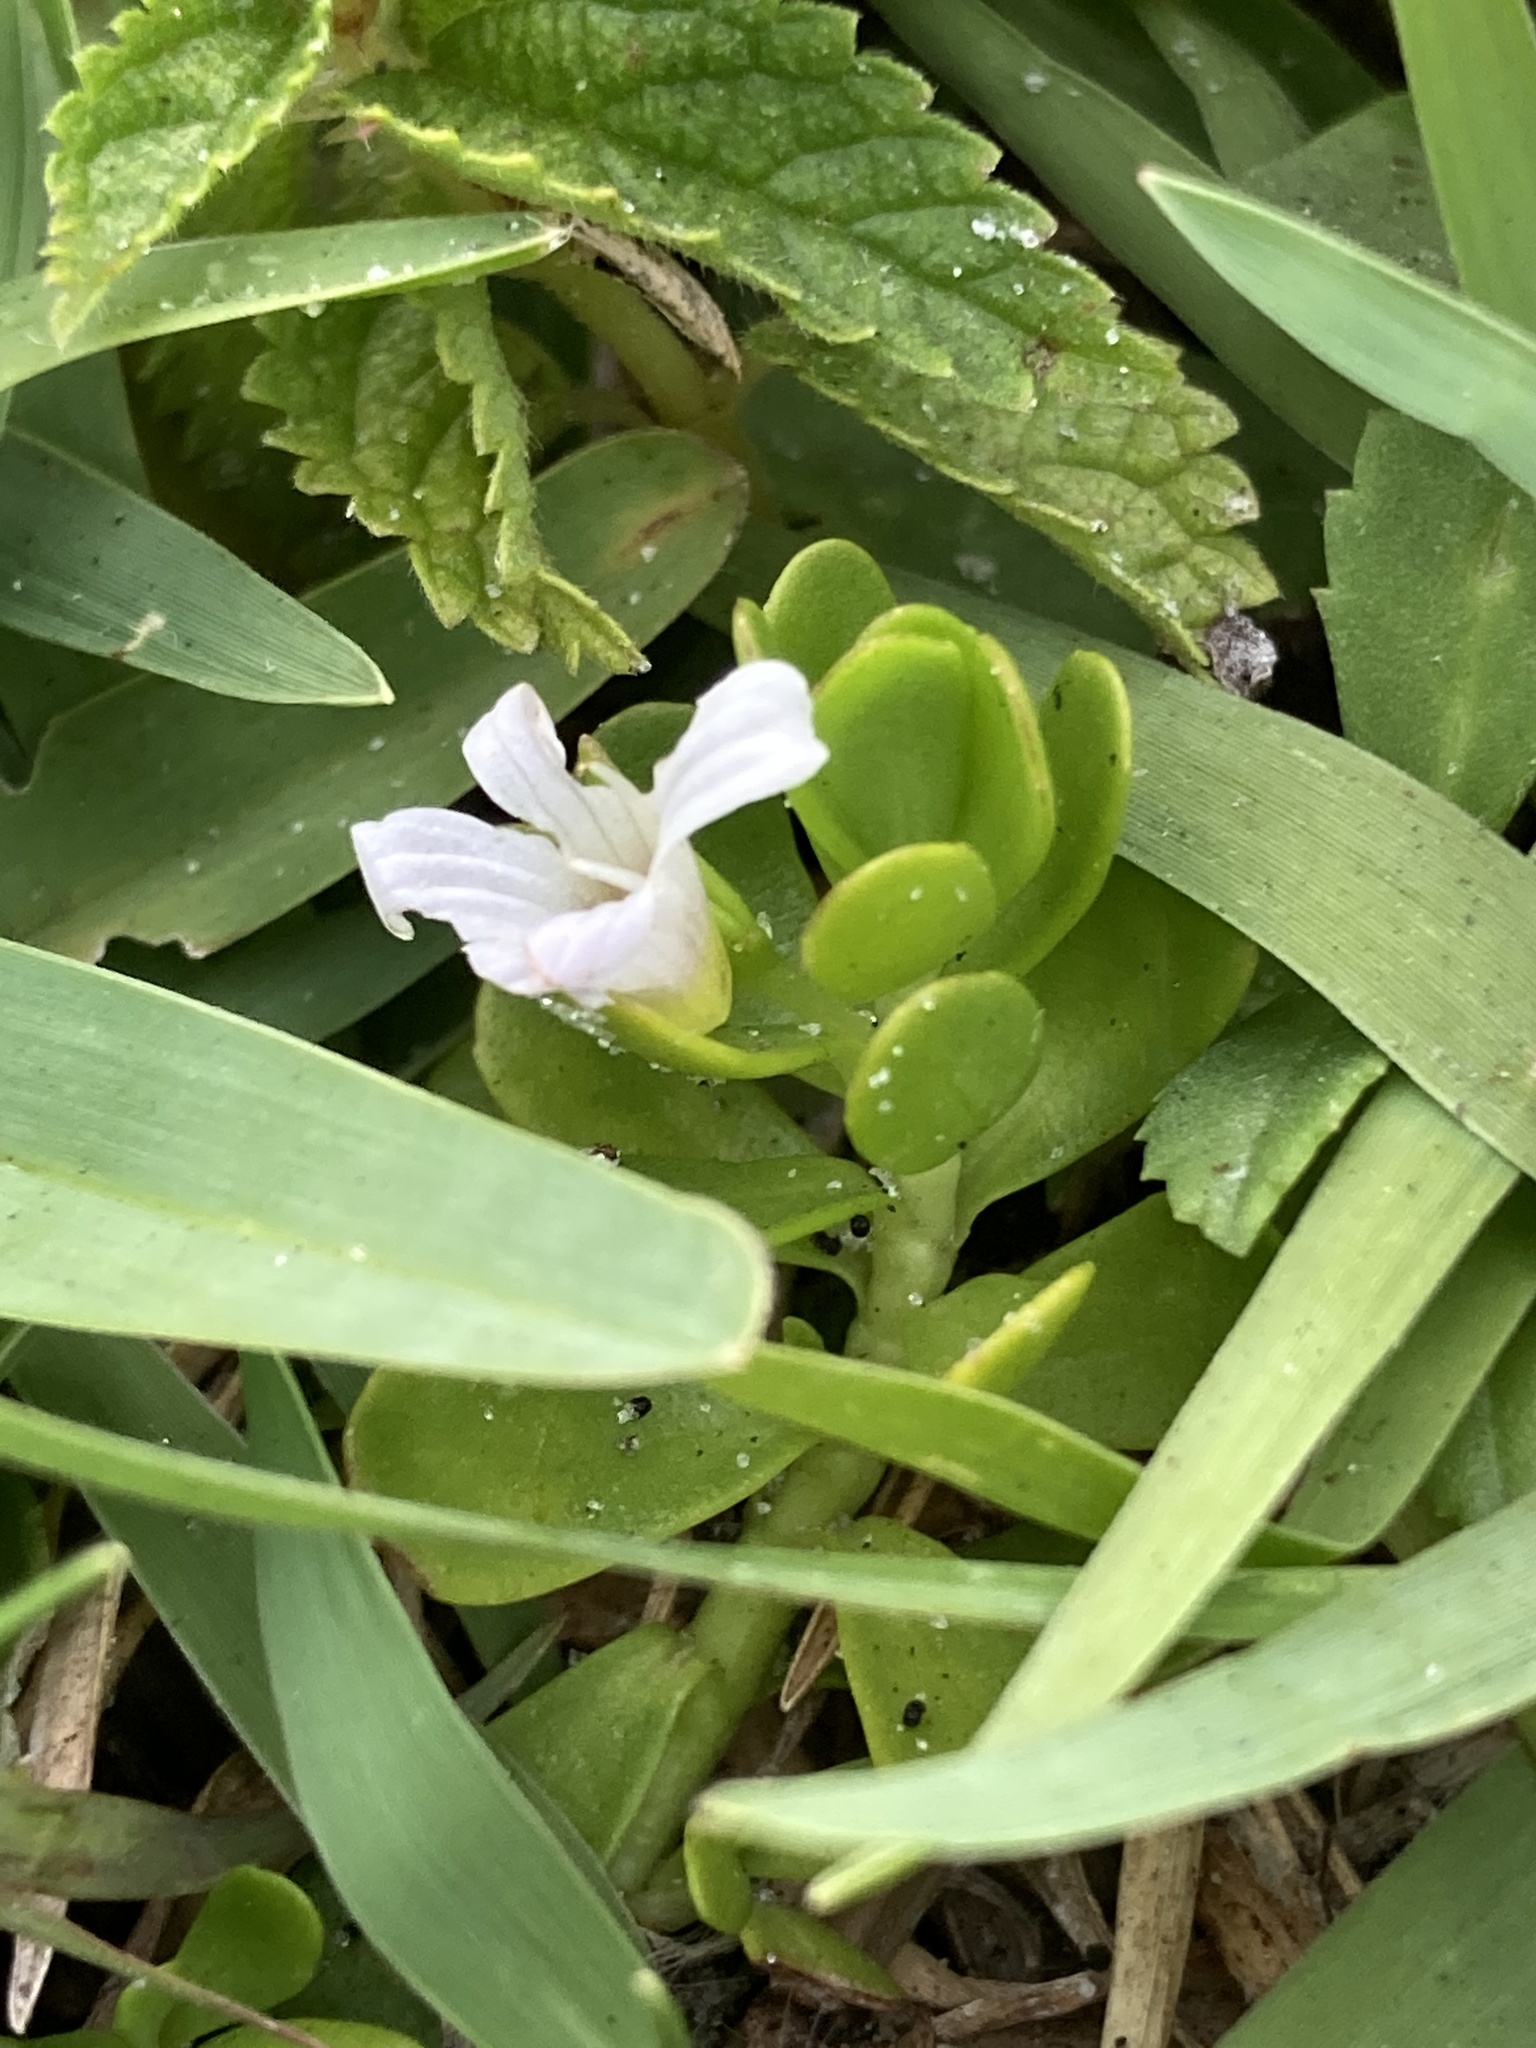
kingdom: Plantae
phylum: Tracheophyta
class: Magnoliopsida
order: Lamiales
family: Plantaginaceae
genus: Bacopa
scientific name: Bacopa monnieri
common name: Indian-pennywort
